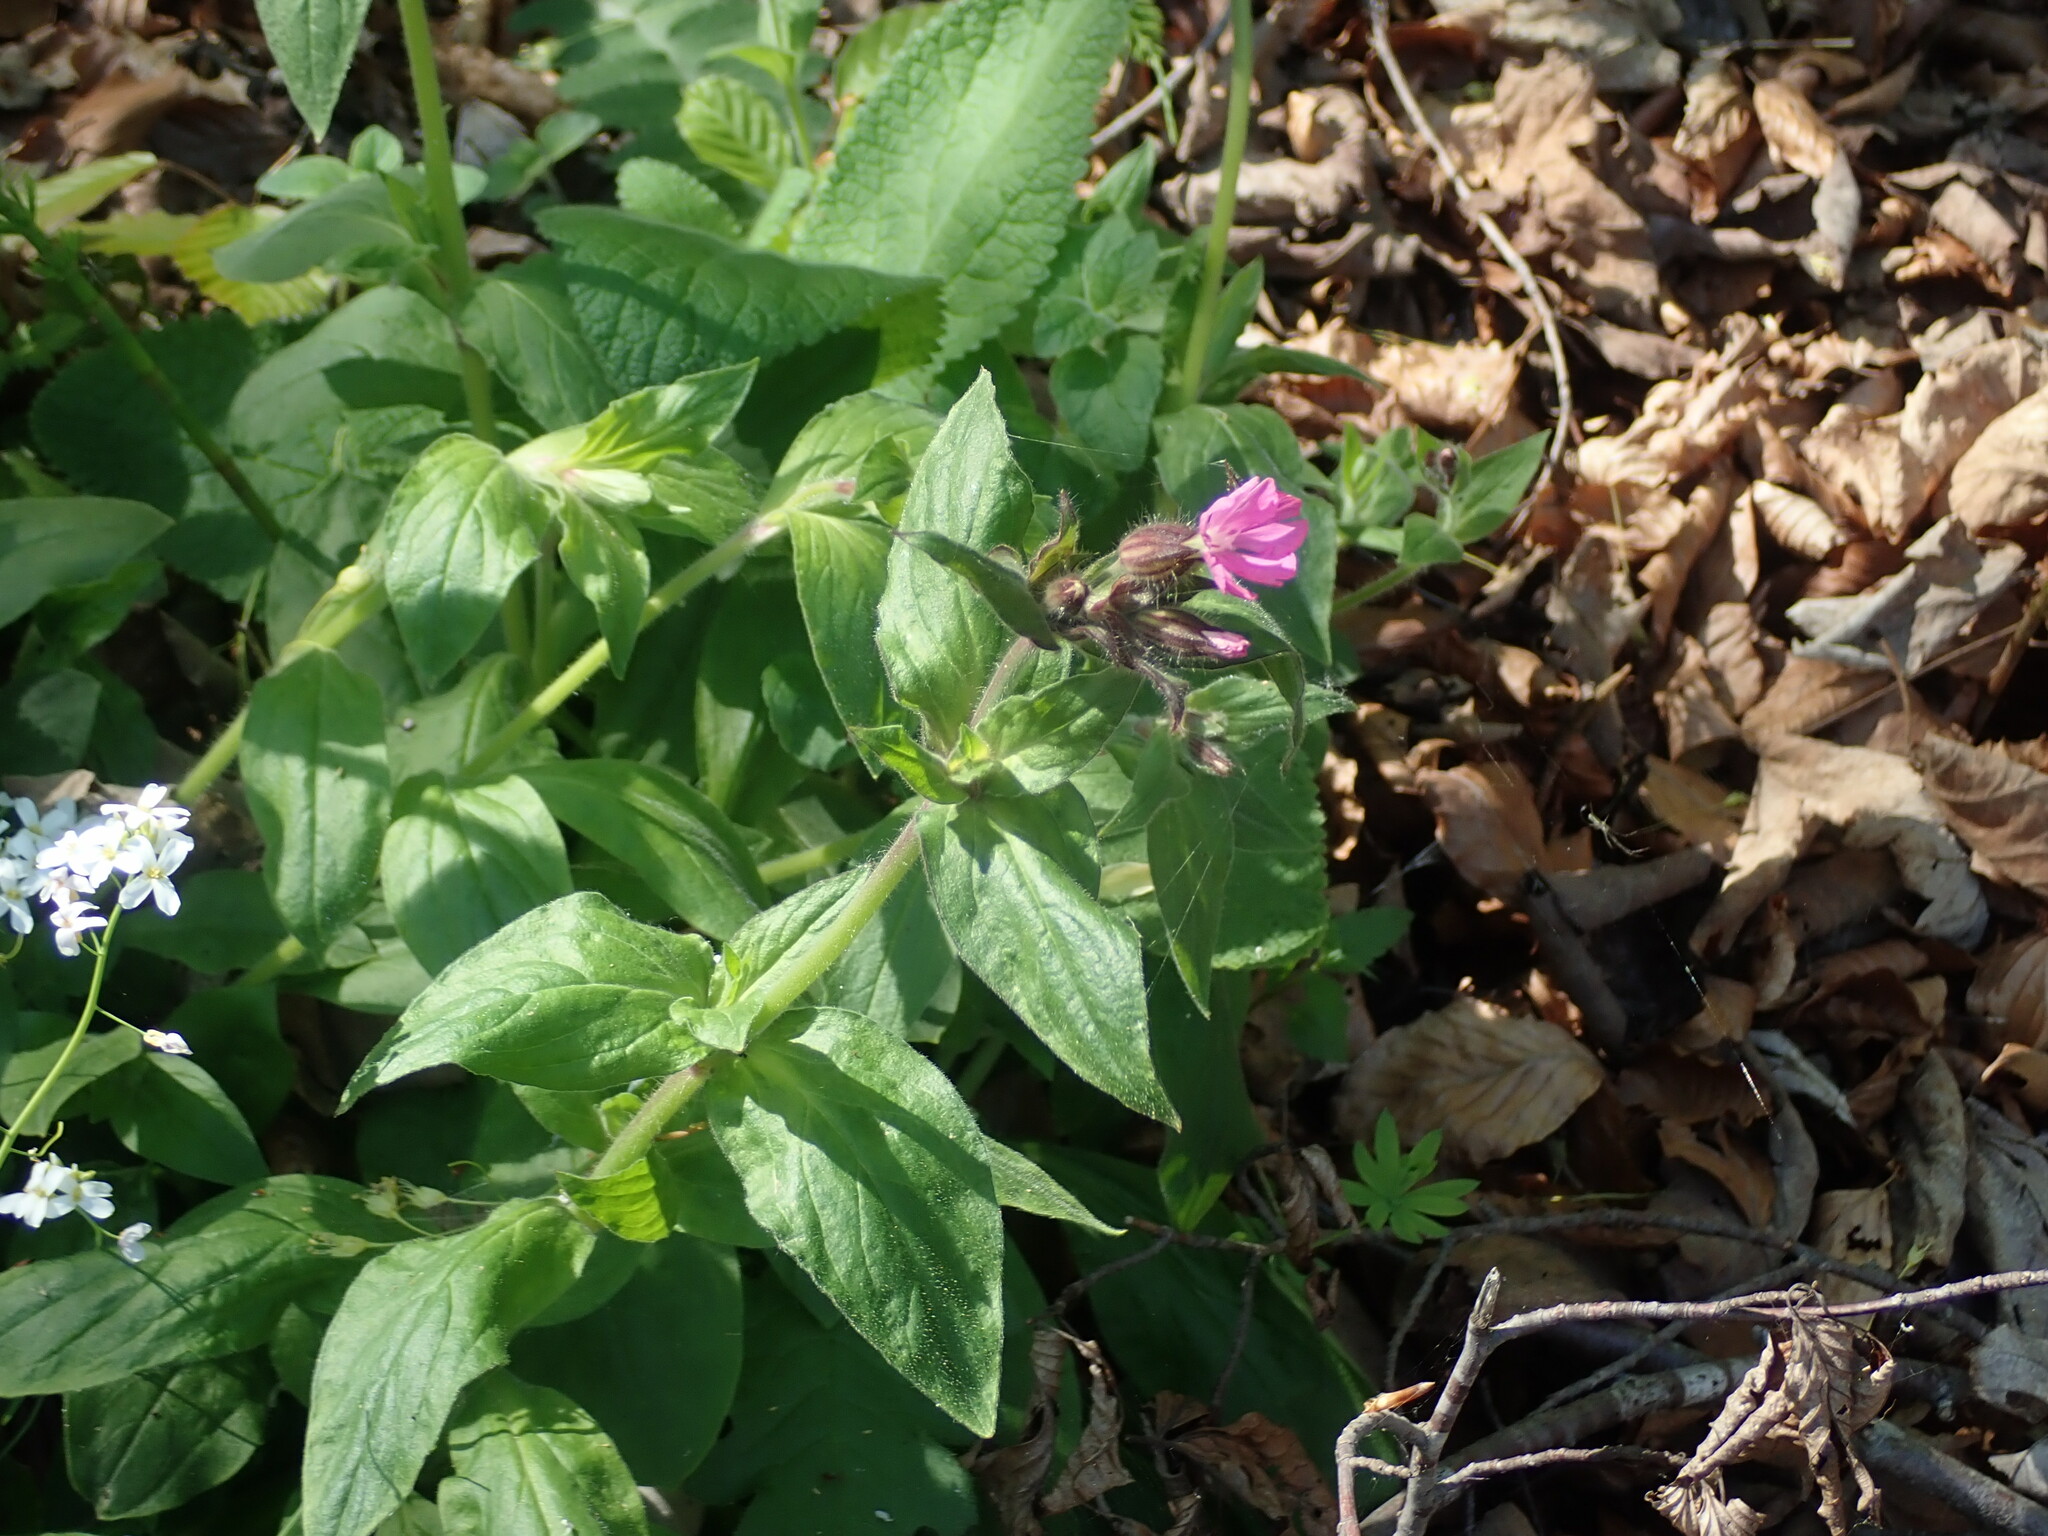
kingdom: Plantae
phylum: Tracheophyta
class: Magnoliopsida
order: Caryophyllales
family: Caryophyllaceae
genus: Silene
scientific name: Silene dioica
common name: Red campion
